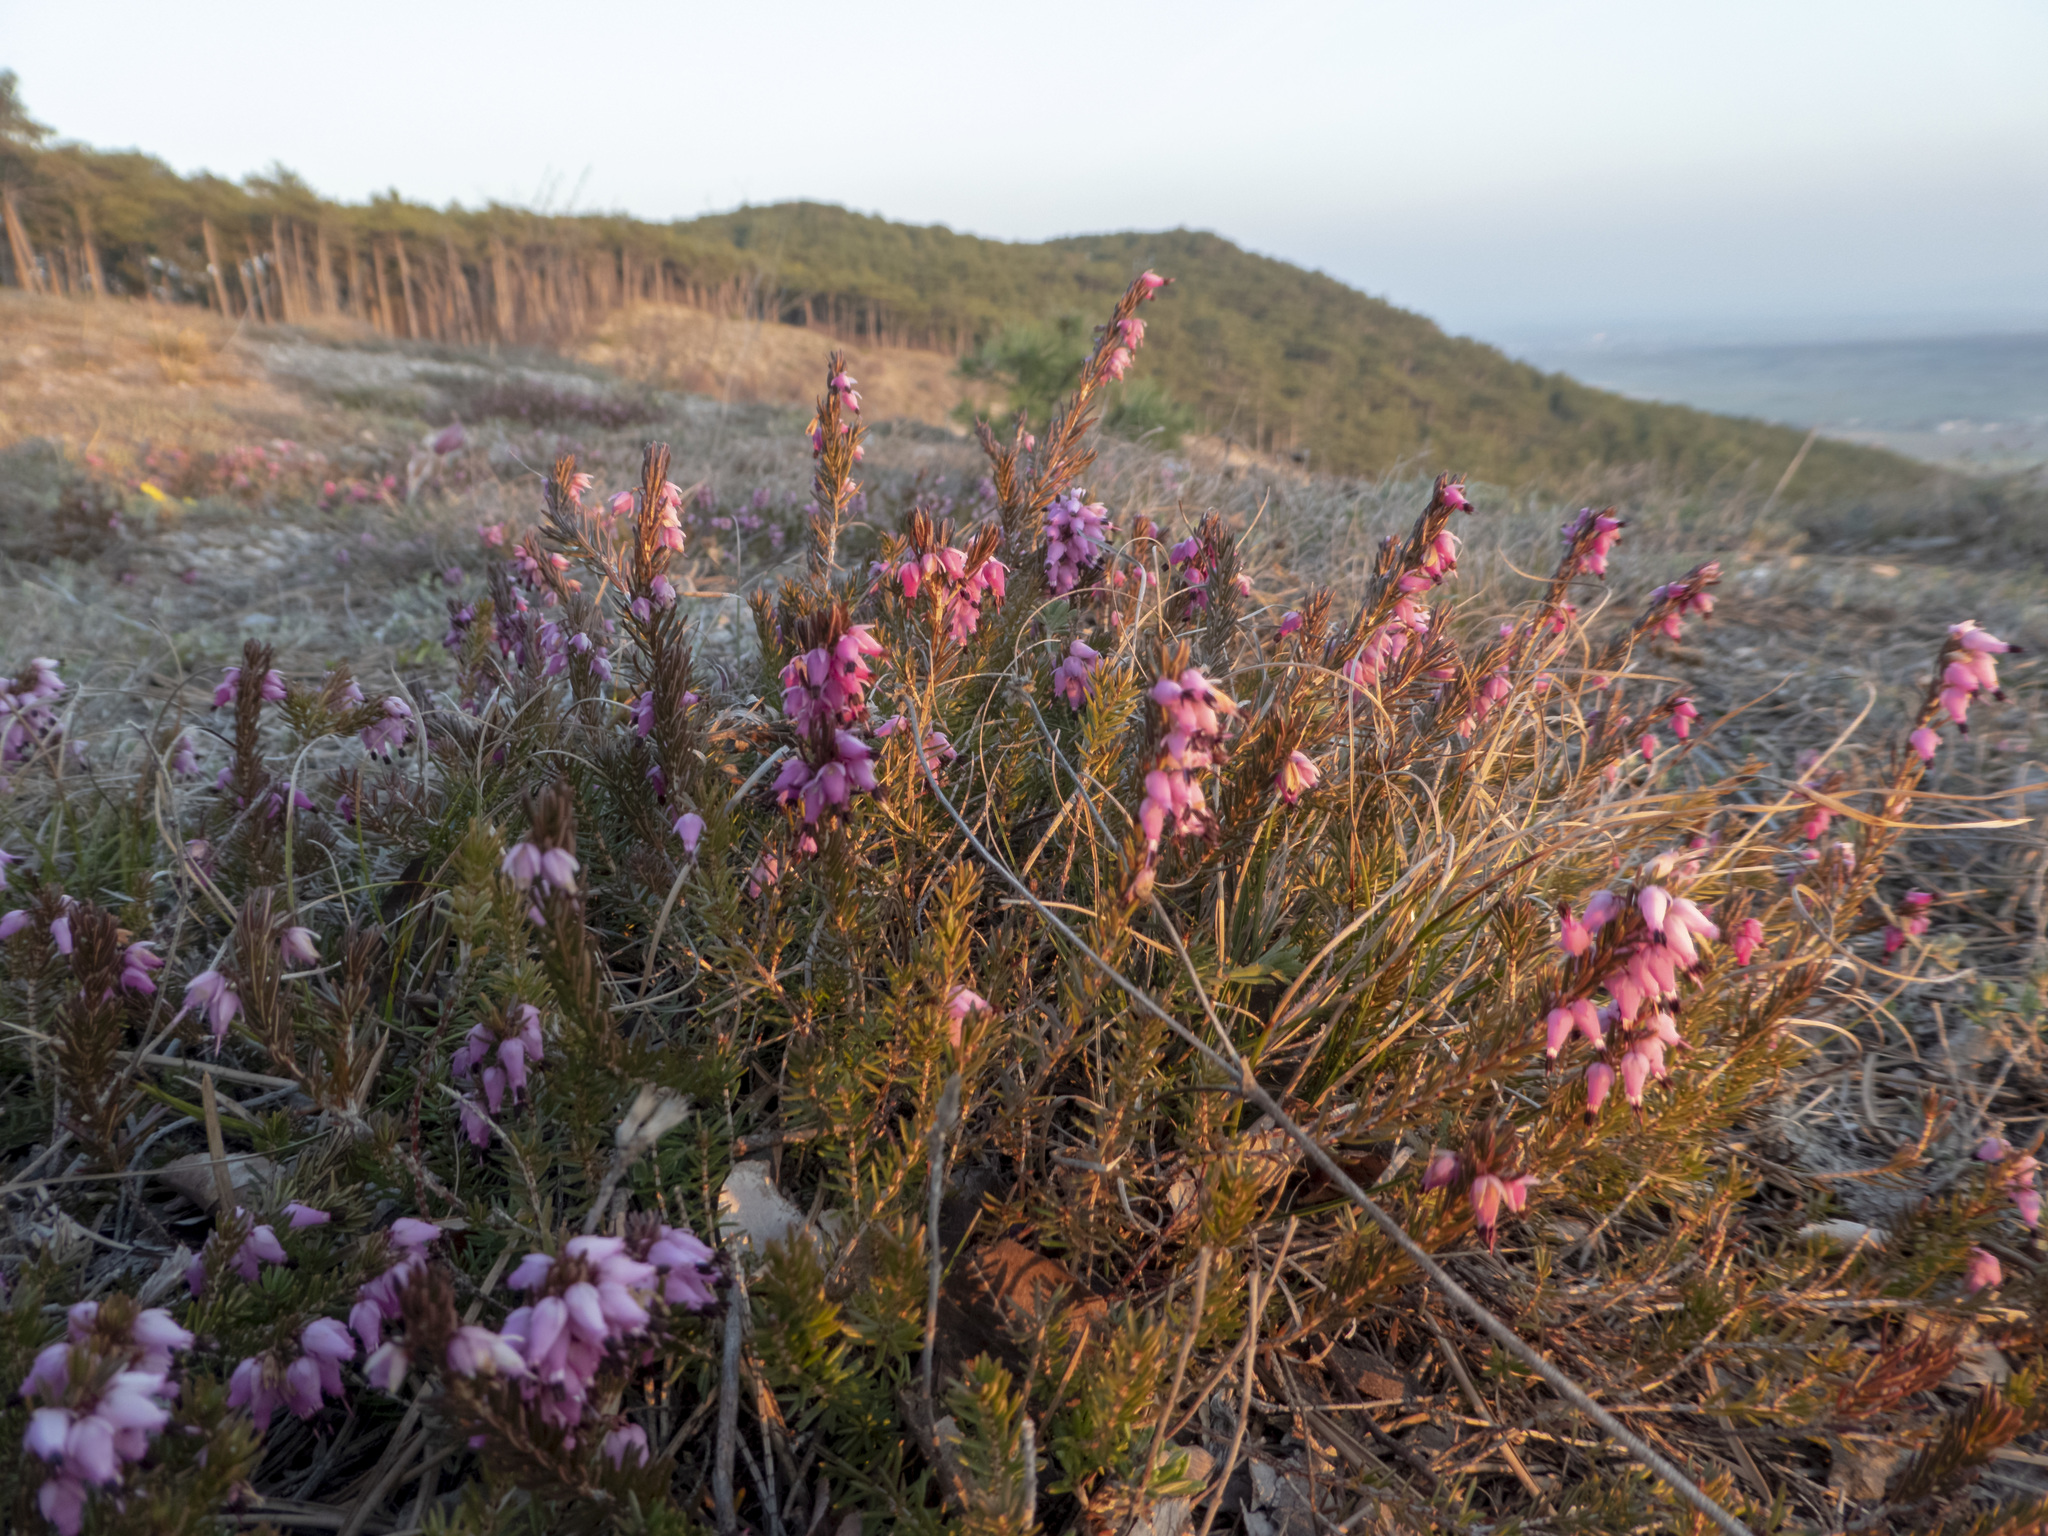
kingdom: Plantae
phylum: Tracheophyta
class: Magnoliopsida
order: Ericales
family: Ericaceae
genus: Erica
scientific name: Erica carnea
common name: Winter heath
